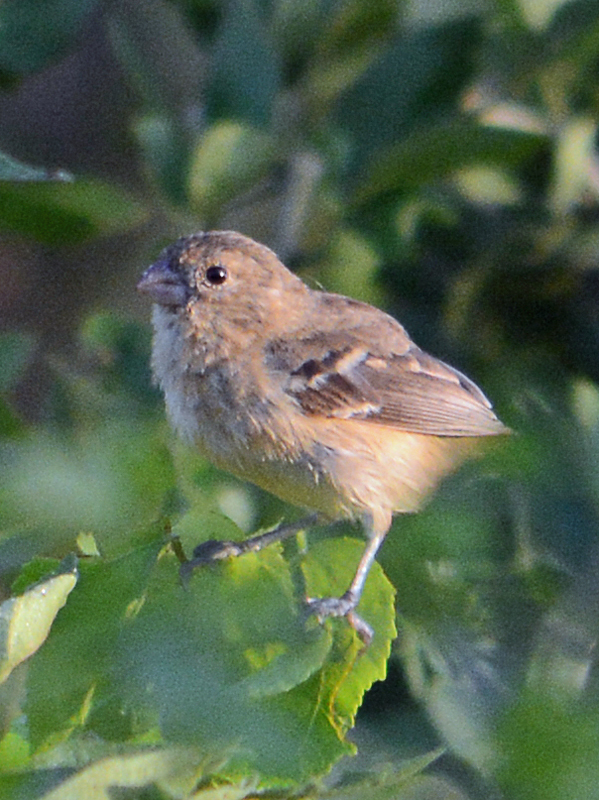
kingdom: Animalia
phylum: Chordata
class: Aves
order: Passeriformes
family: Thraupidae
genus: Sporophila
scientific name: Sporophila morelleti
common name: Morelet's seedeater
